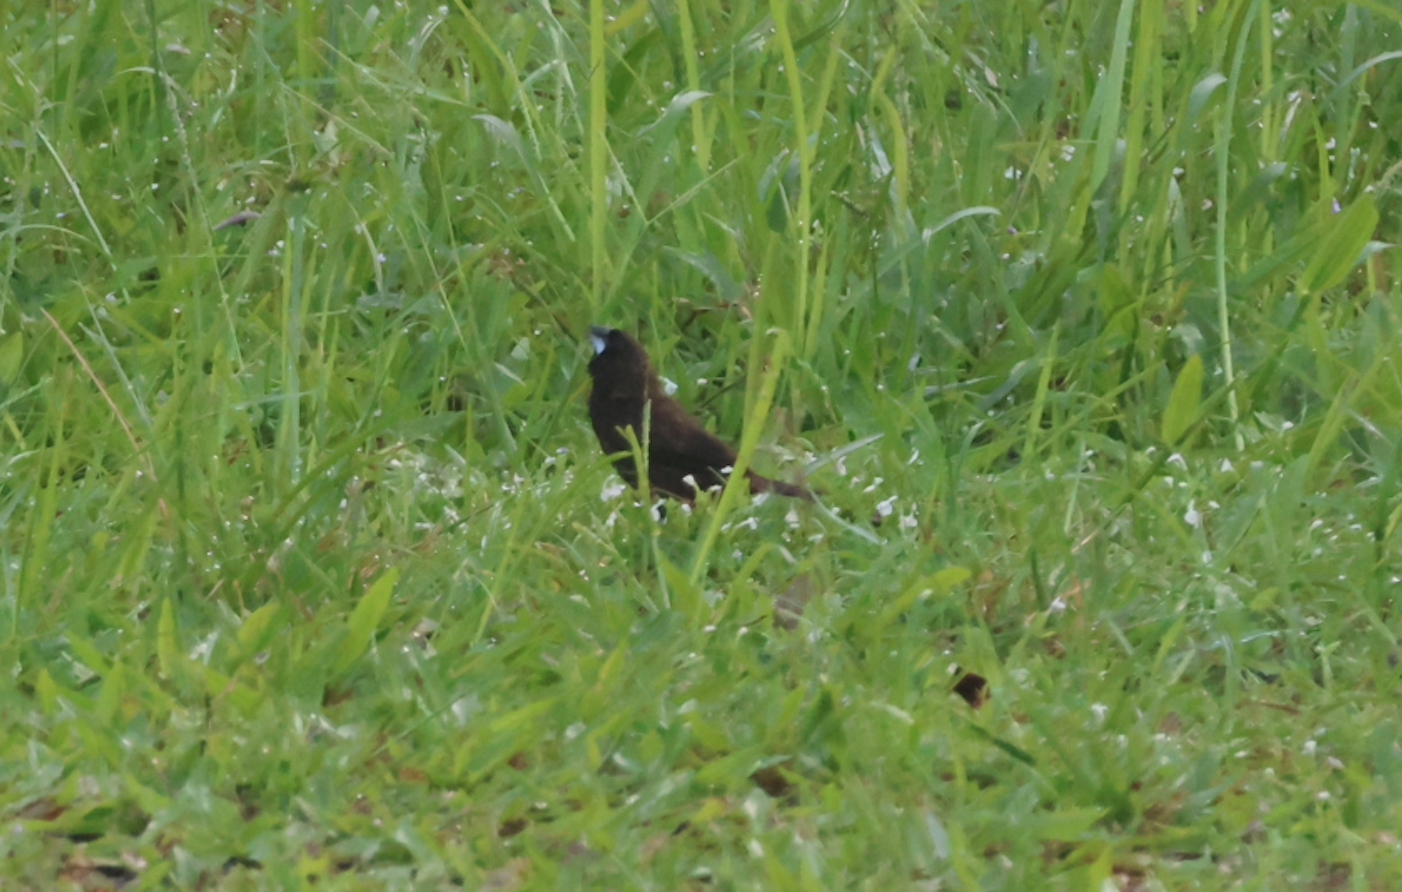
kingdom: Animalia
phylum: Chordata
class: Aves
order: Passeriformes
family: Estrildidae
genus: Lonchura
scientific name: Lonchura fuscans
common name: Dusky munia
